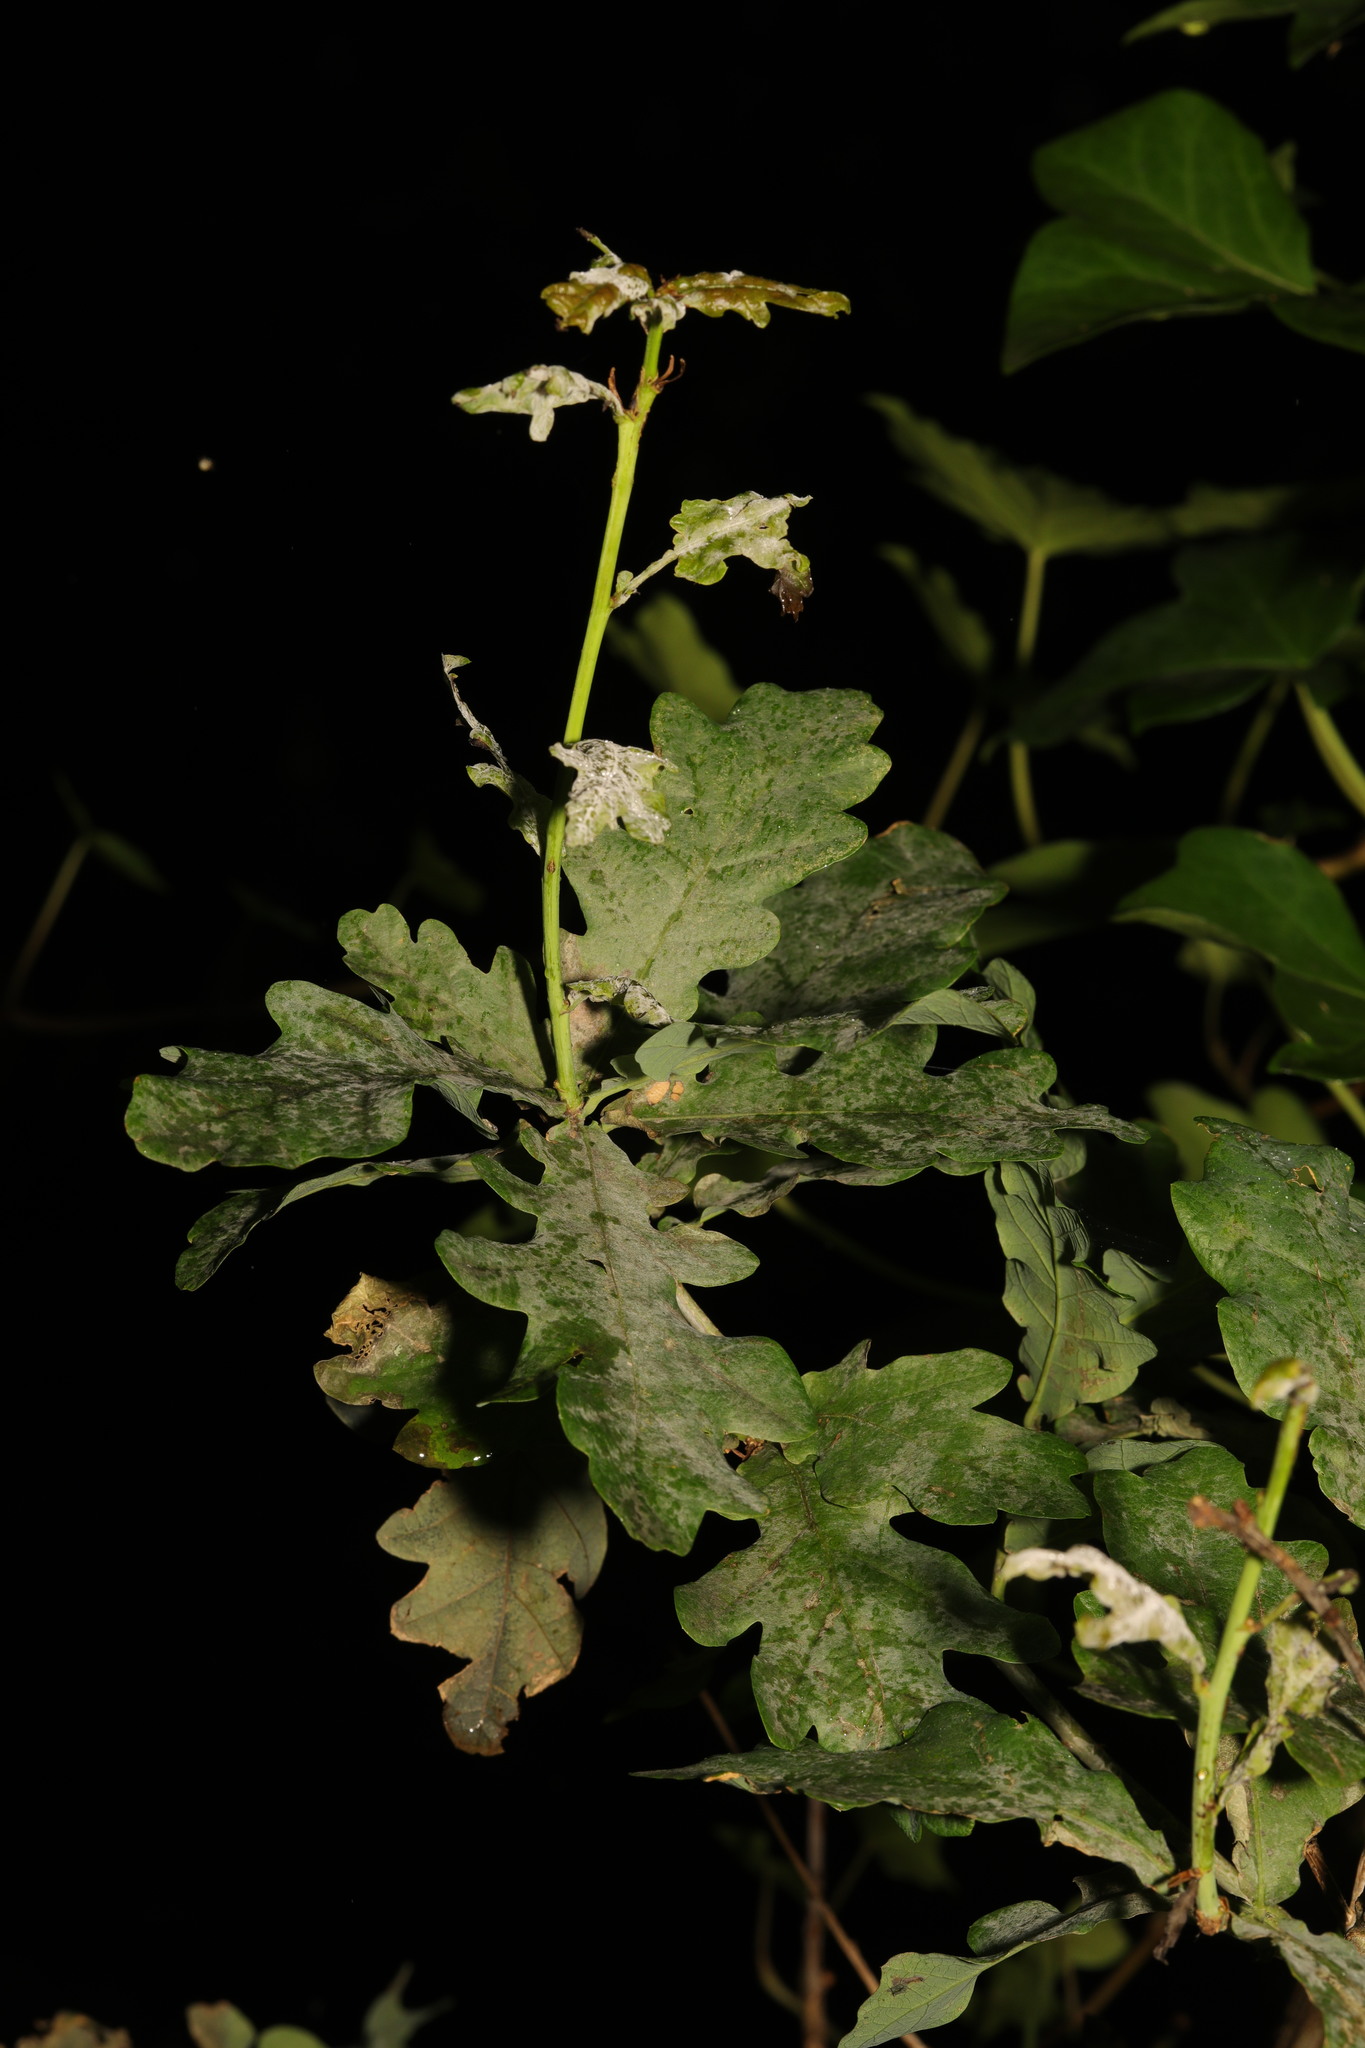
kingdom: Plantae
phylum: Tracheophyta
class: Magnoliopsida
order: Fagales
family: Fagaceae
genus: Quercus
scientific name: Quercus robur
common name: Pedunculate oak
